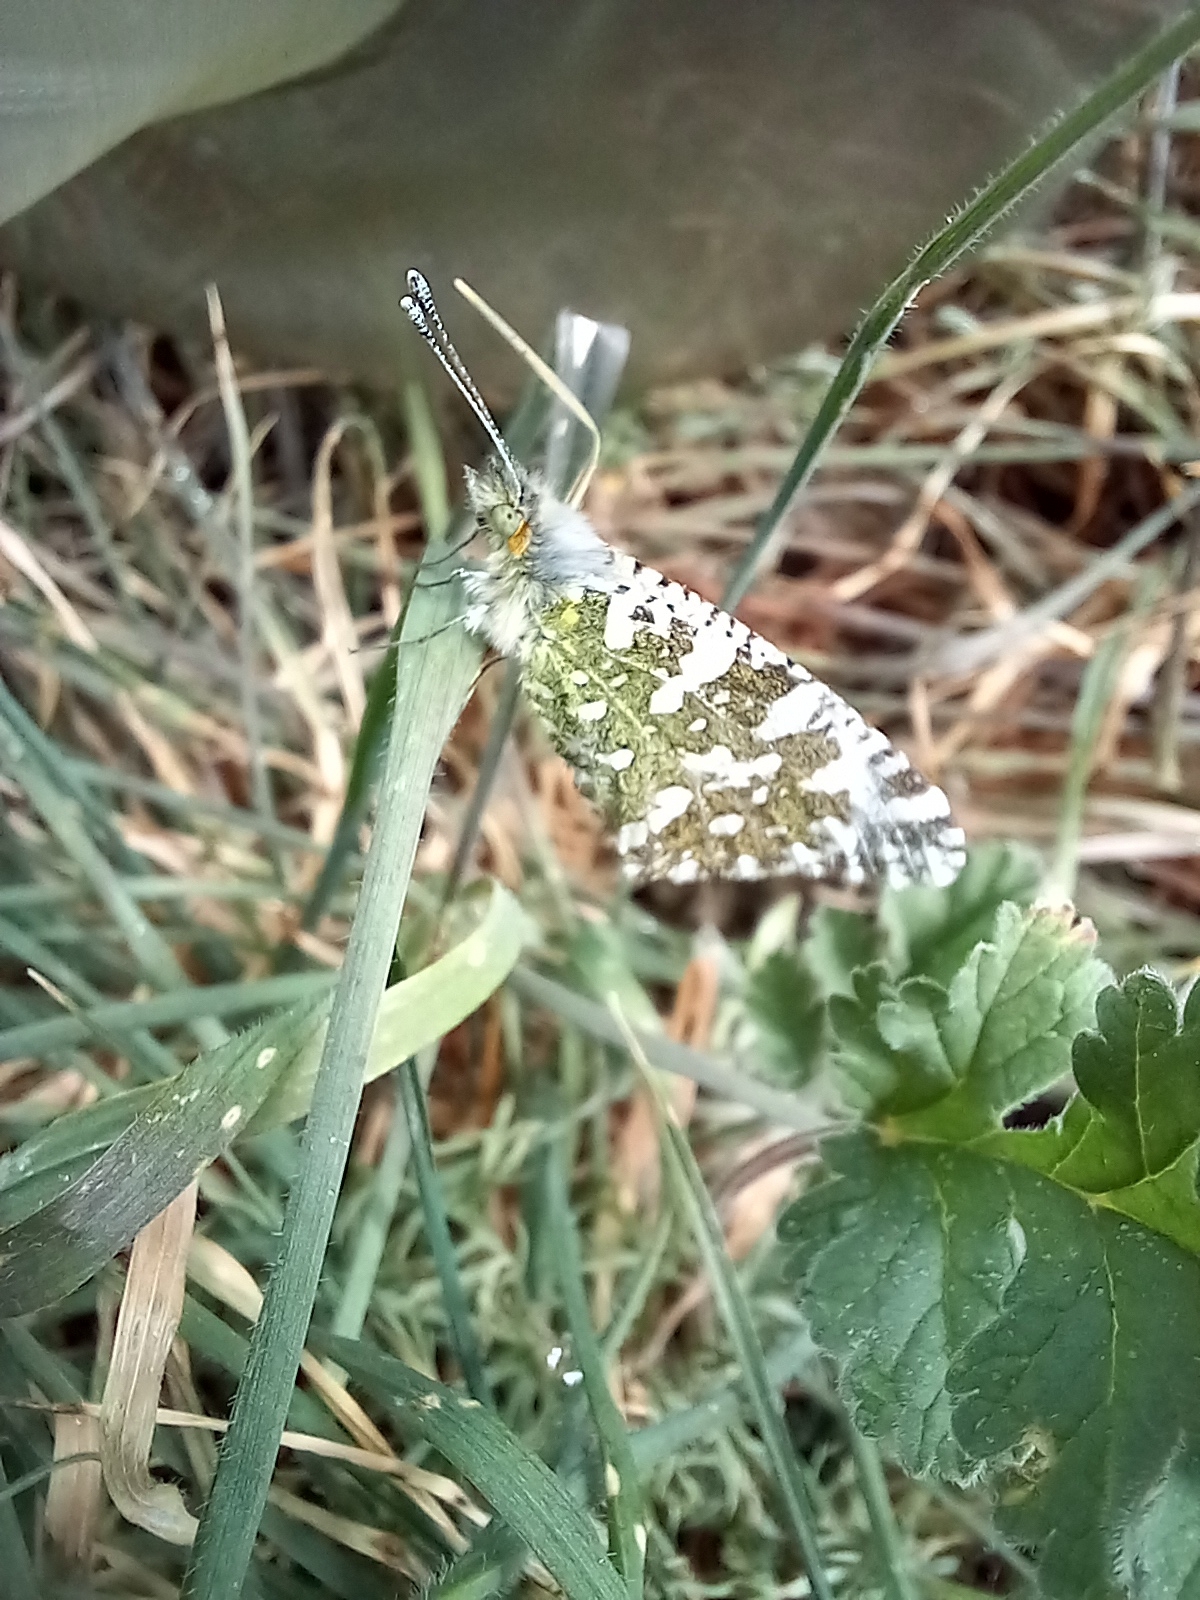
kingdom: Animalia
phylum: Arthropoda
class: Insecta
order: Lepidoptera
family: Pieridae
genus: Euchloe
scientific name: Euchloe crameri
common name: Western dappled white
